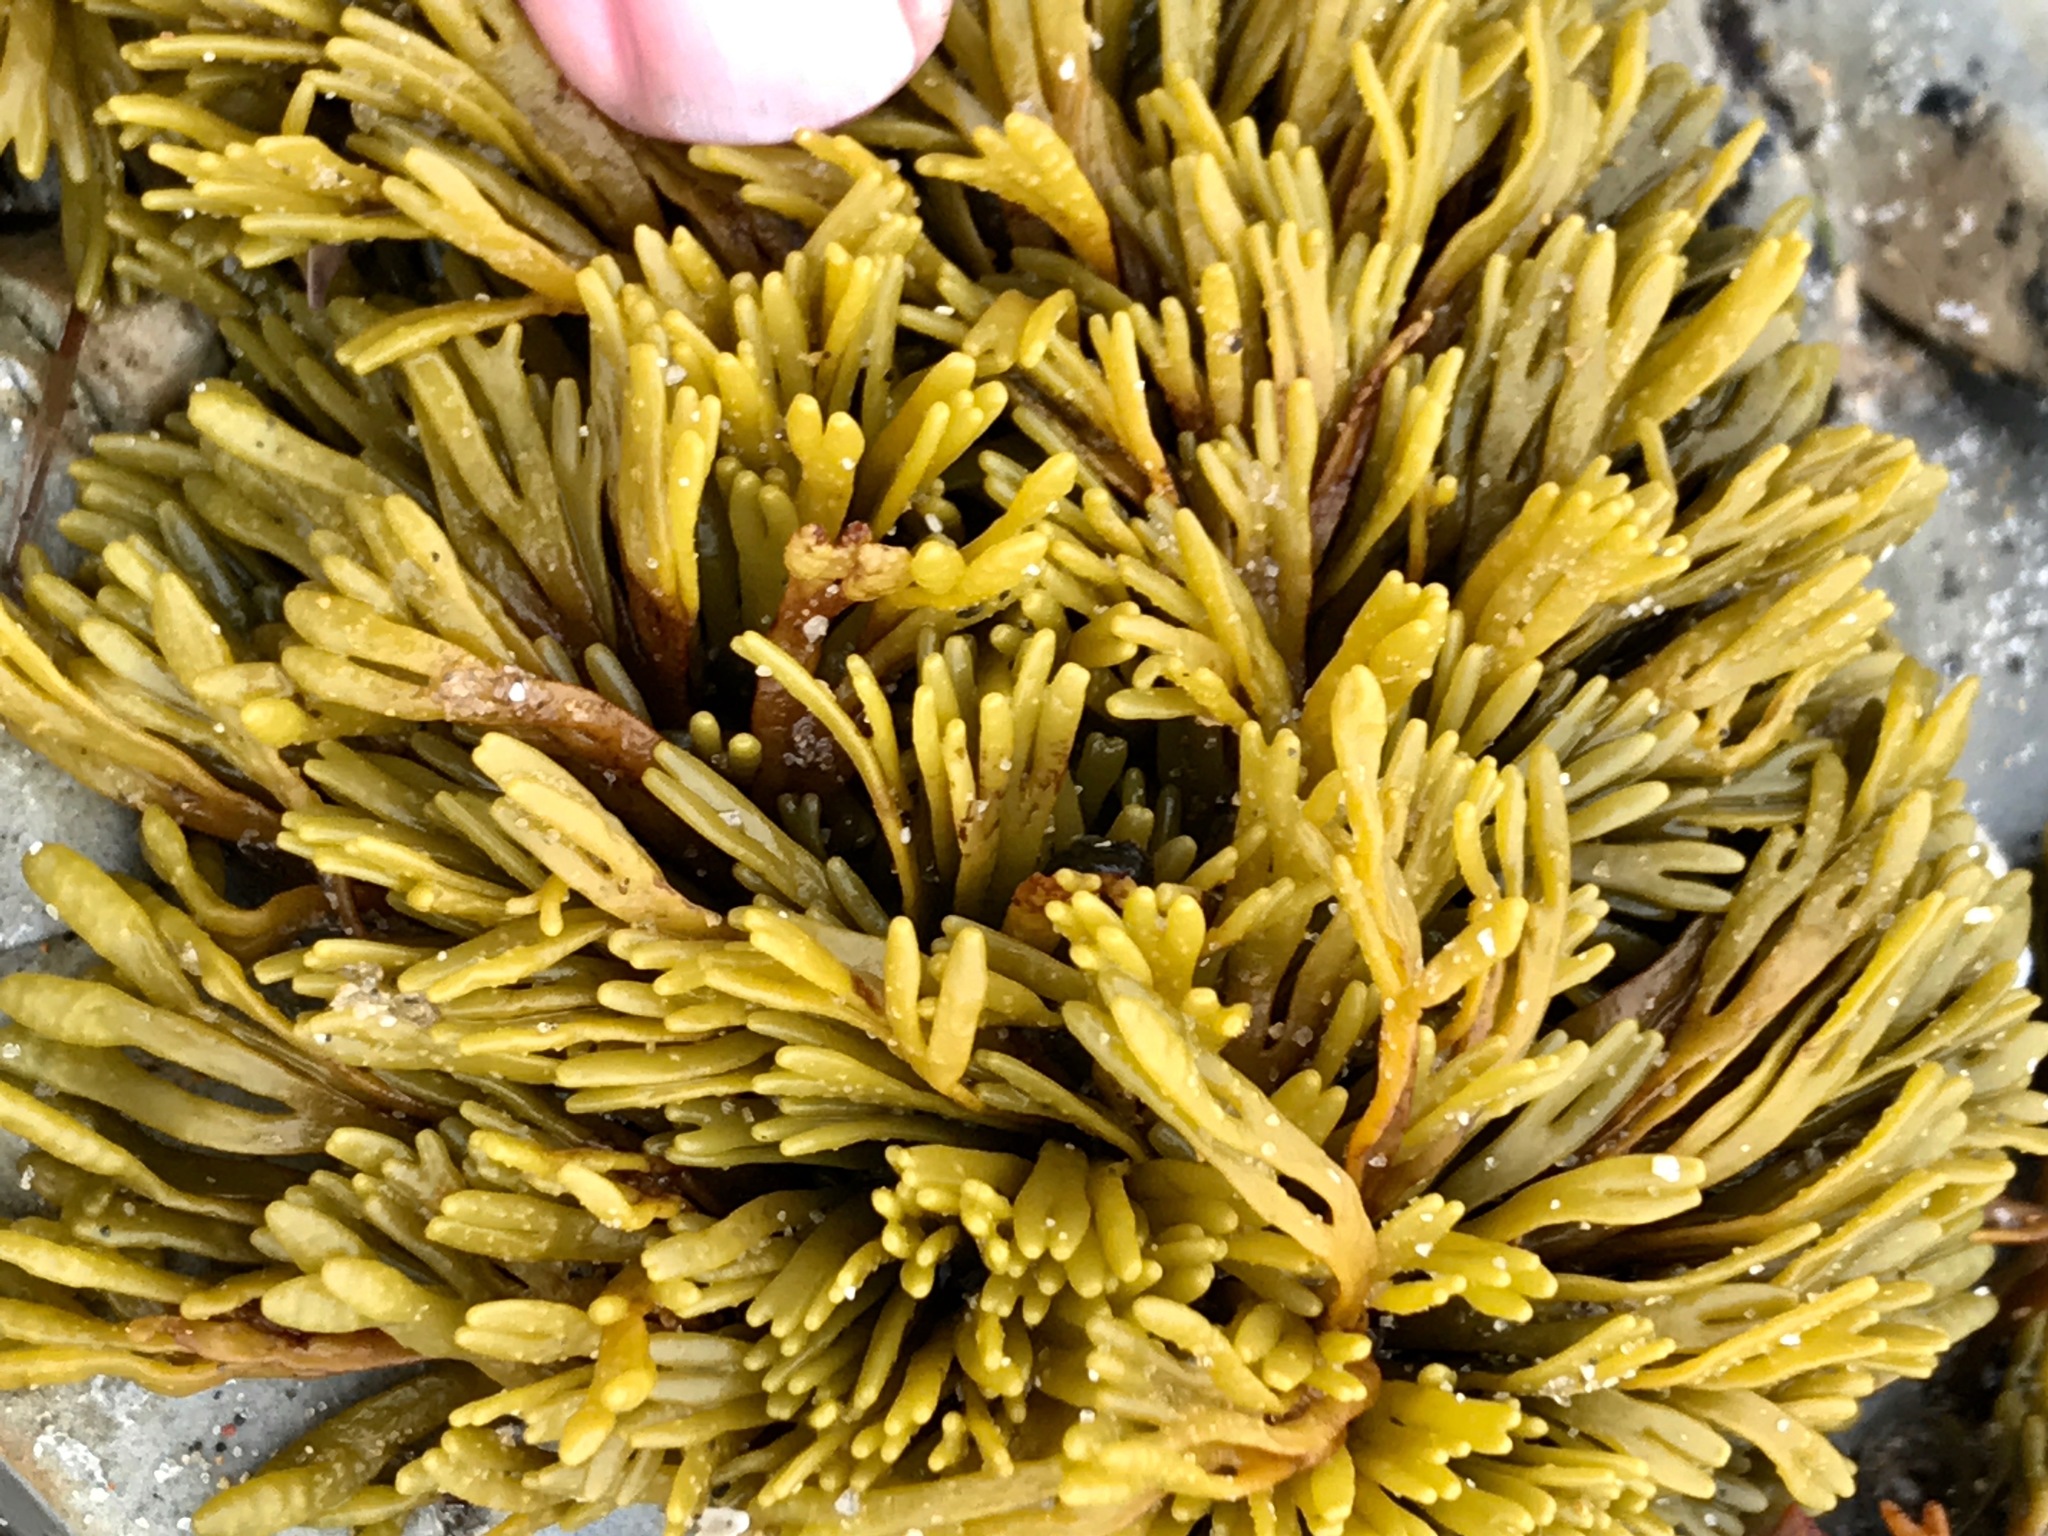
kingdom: Chromista
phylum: Ochrophyta
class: Phaeophyceae
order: Fucales
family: Fucaceae
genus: Pelvetiopsis
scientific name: Pelvetiopsis limitata
